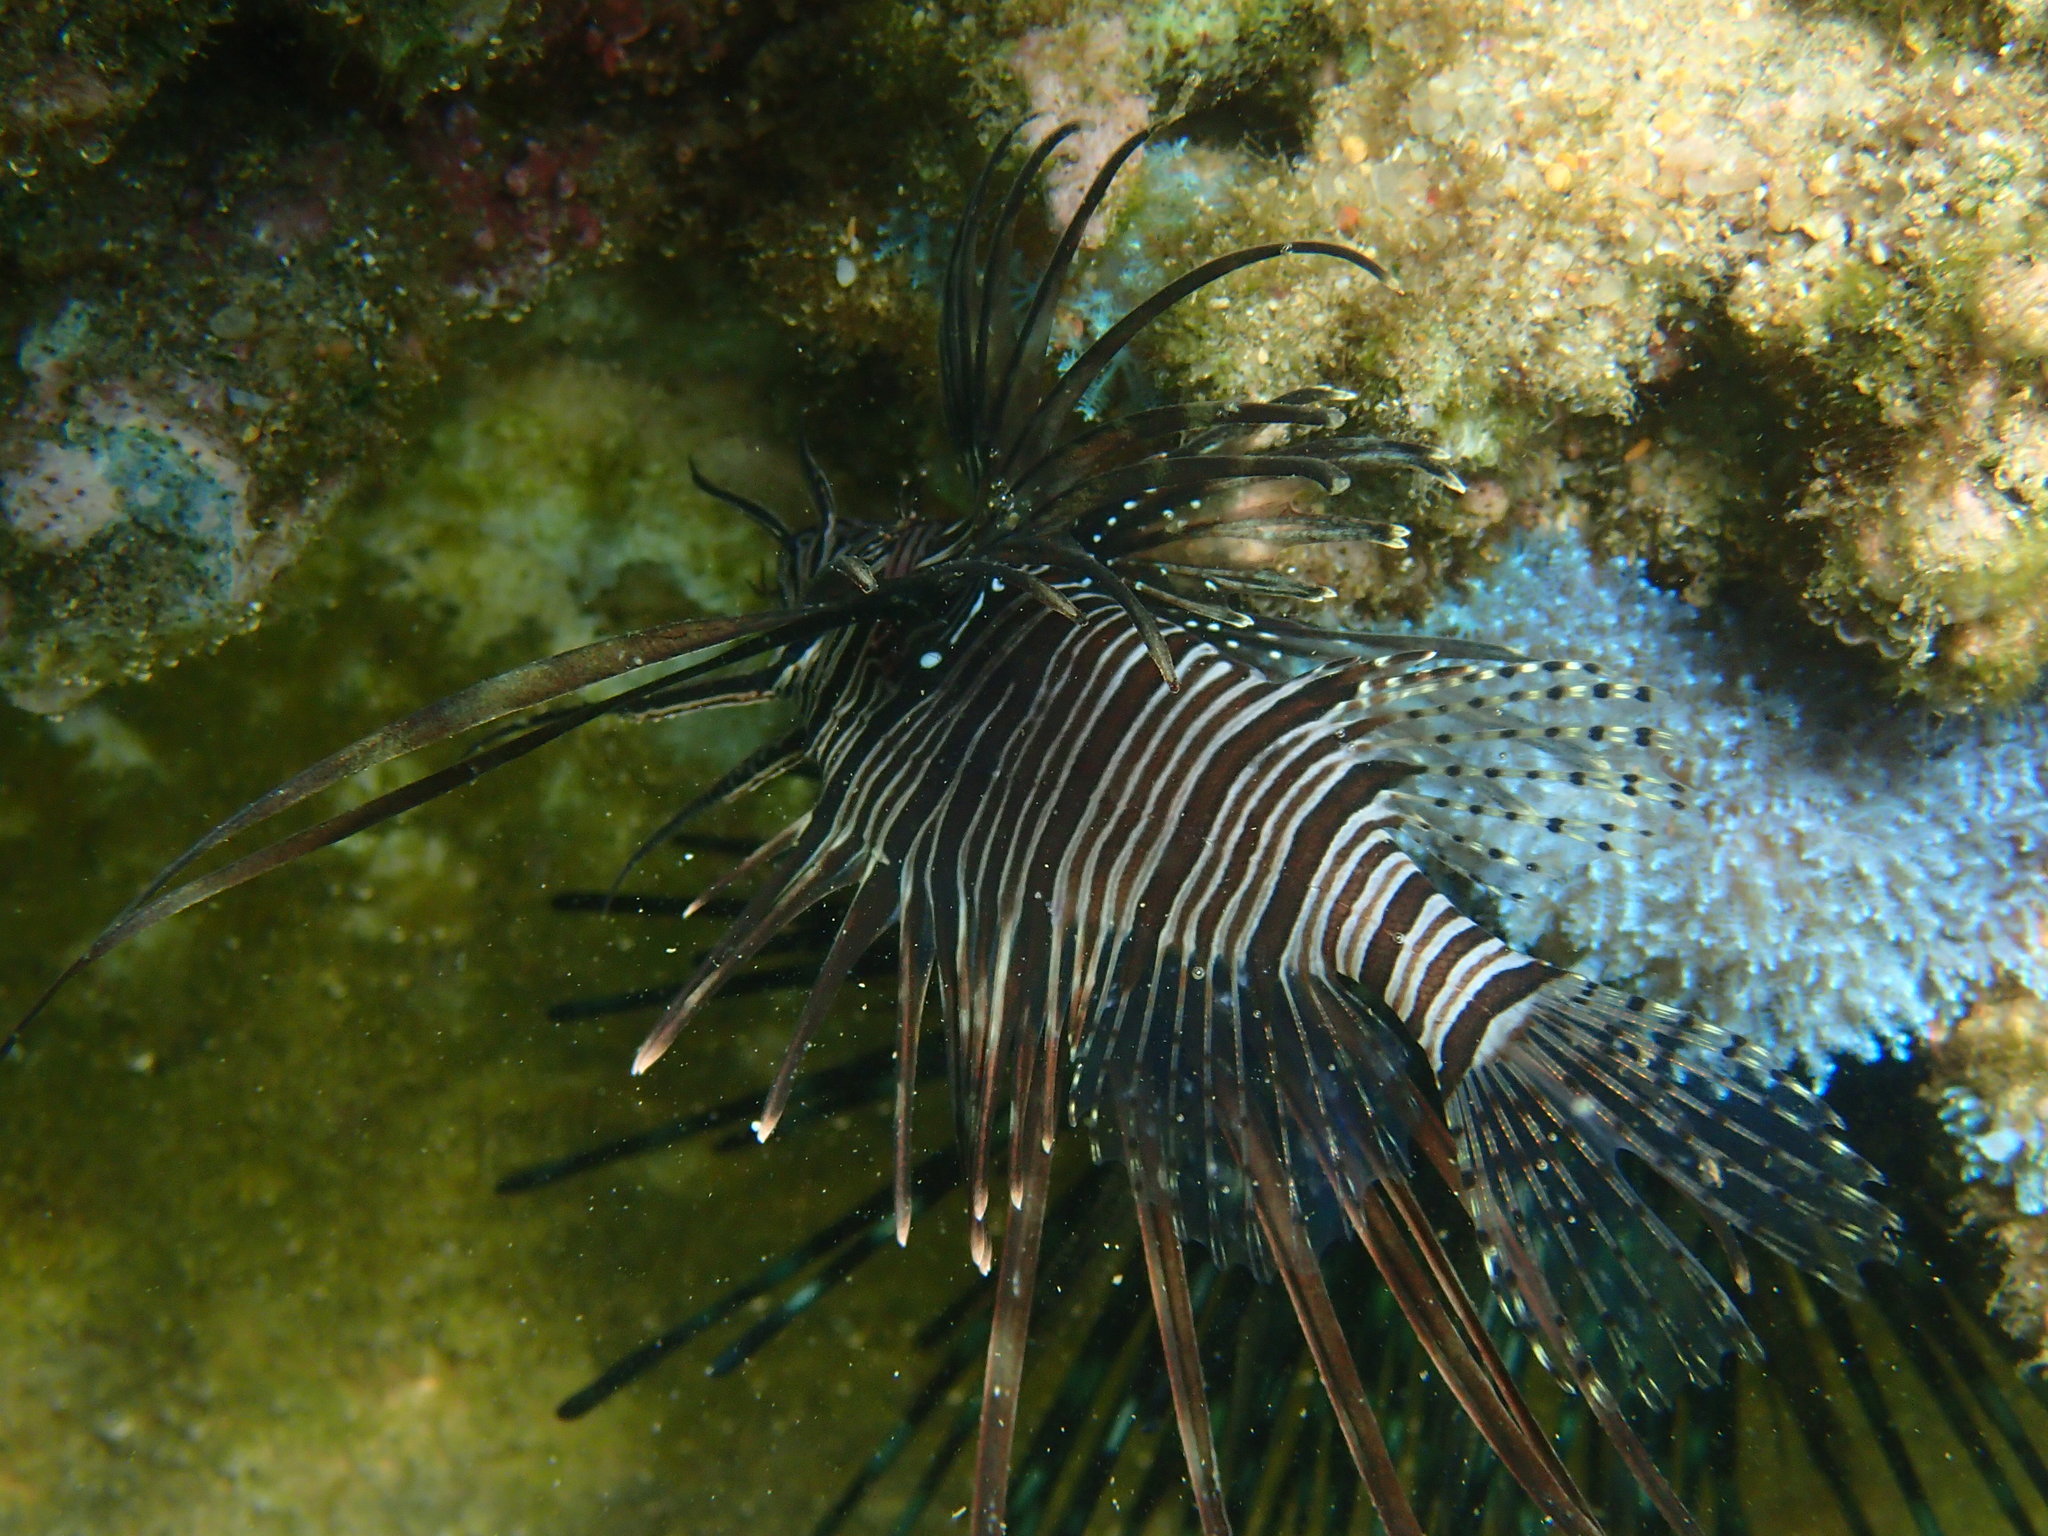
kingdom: Animalia
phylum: Chordata
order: Scorpaeniformes
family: Scorpaenidae
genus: Pterois
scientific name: Pterois miles
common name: Devil firefish
